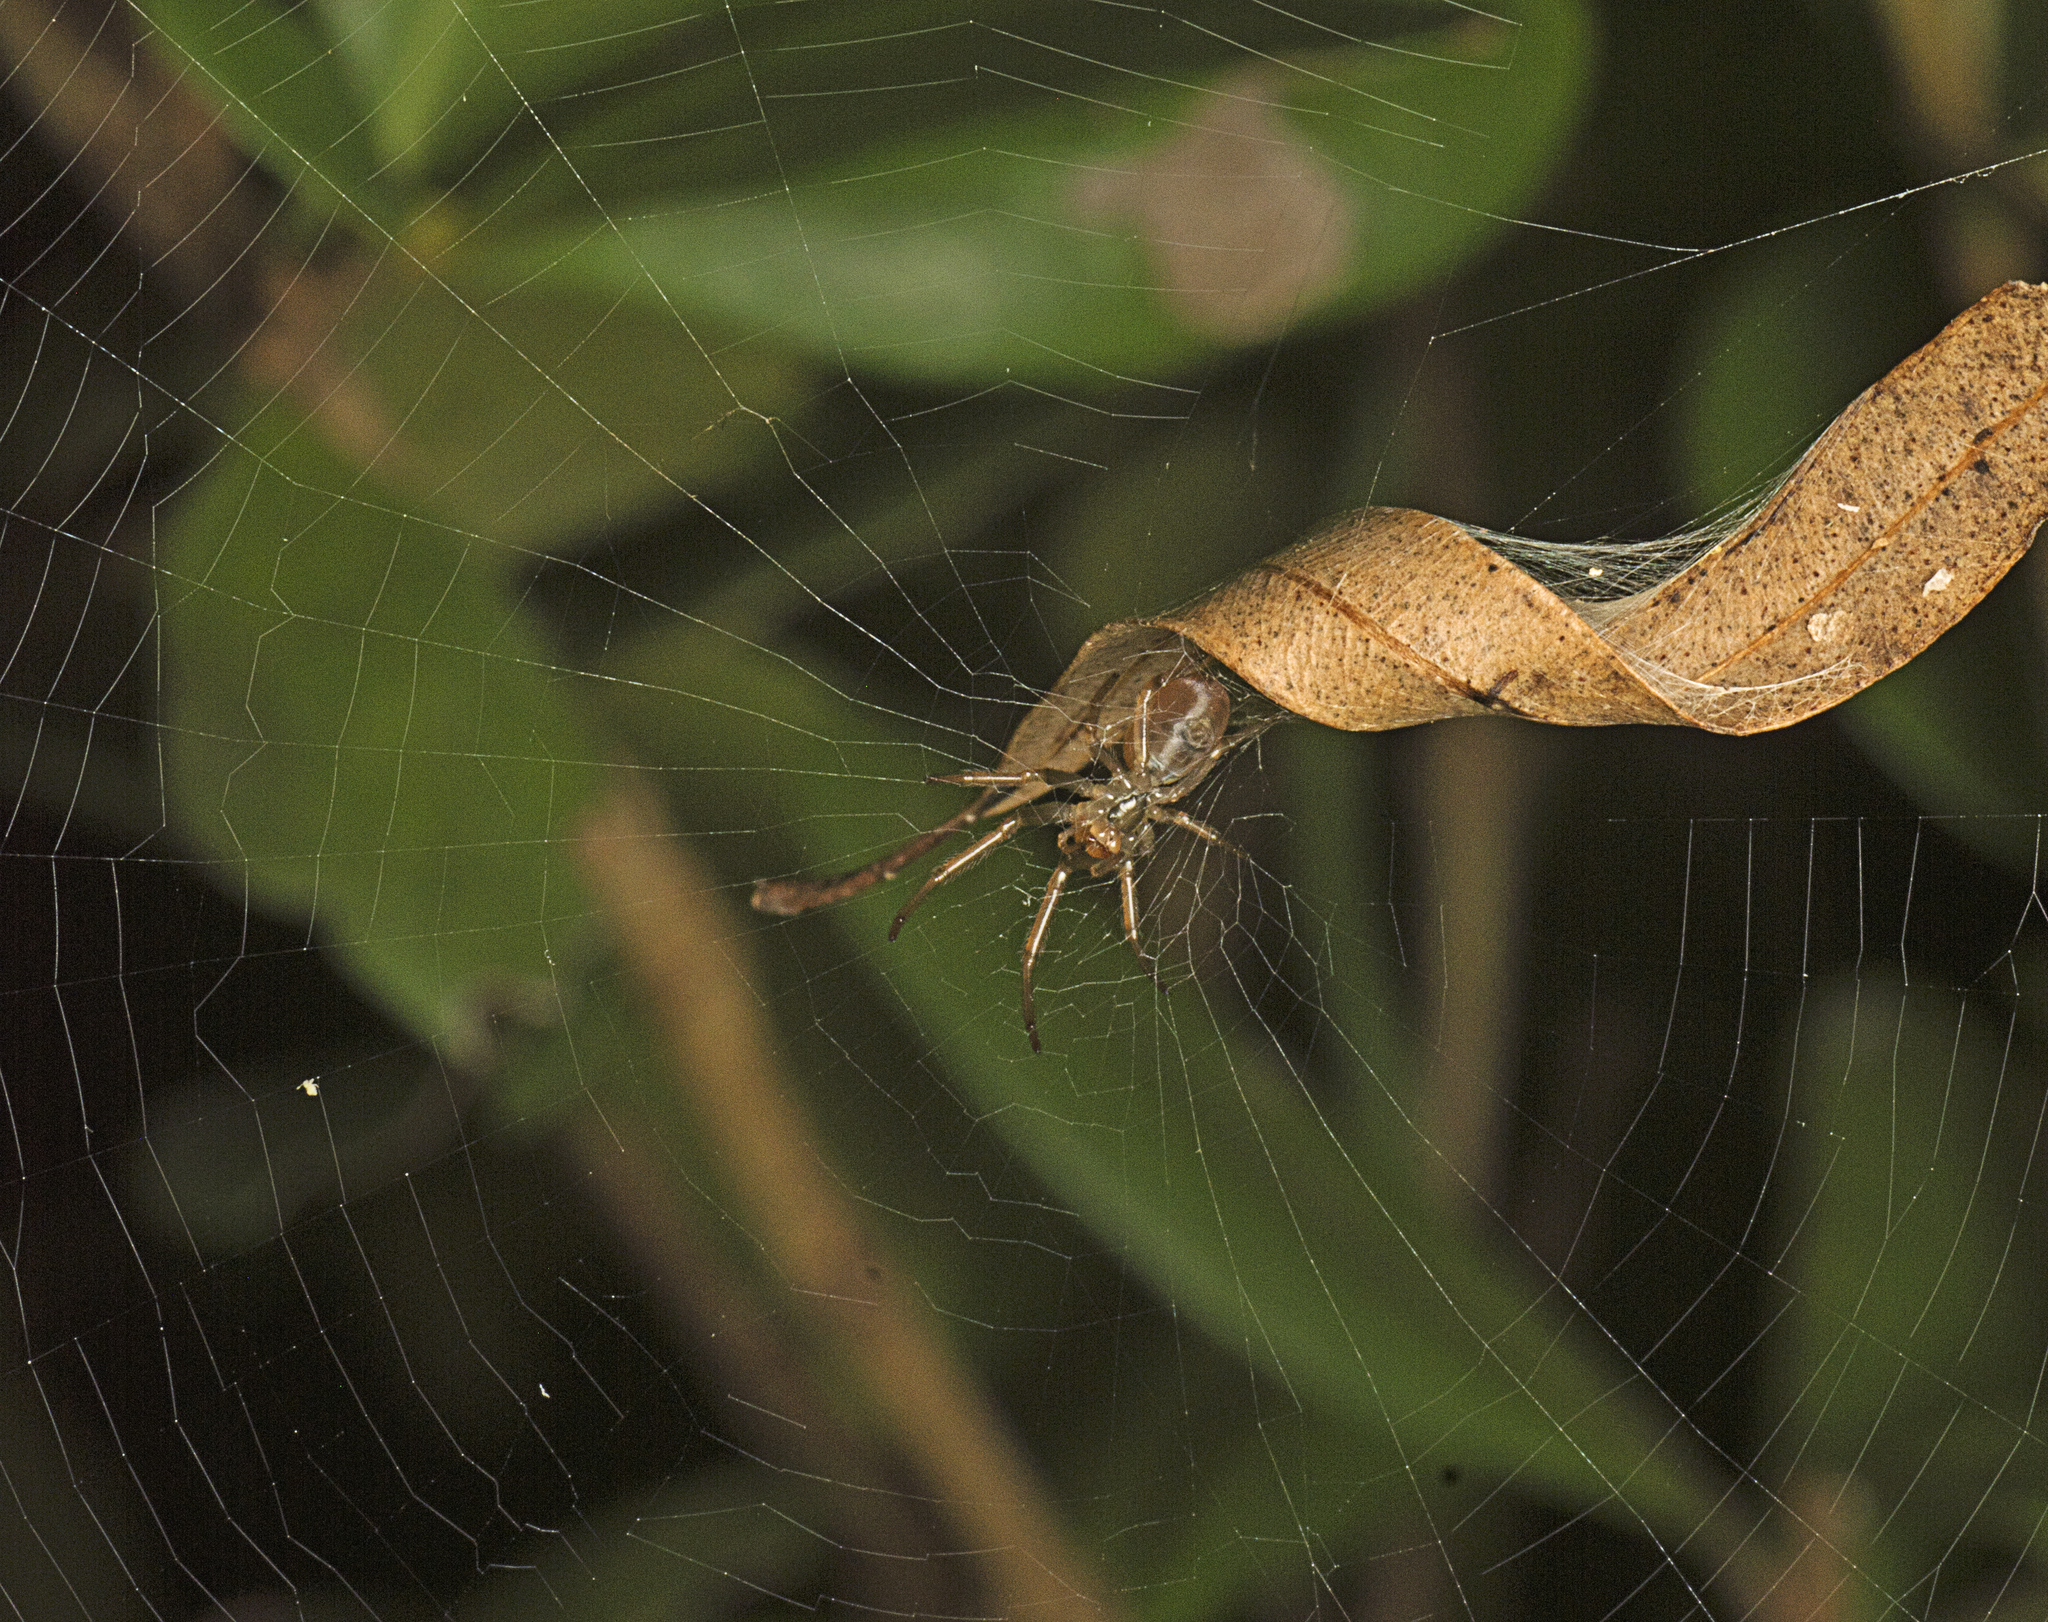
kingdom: Animalia
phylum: Arthropoda
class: Arachnida
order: Araneae
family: Araneidae
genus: Phonognatha
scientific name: Phonognatha graeffei
